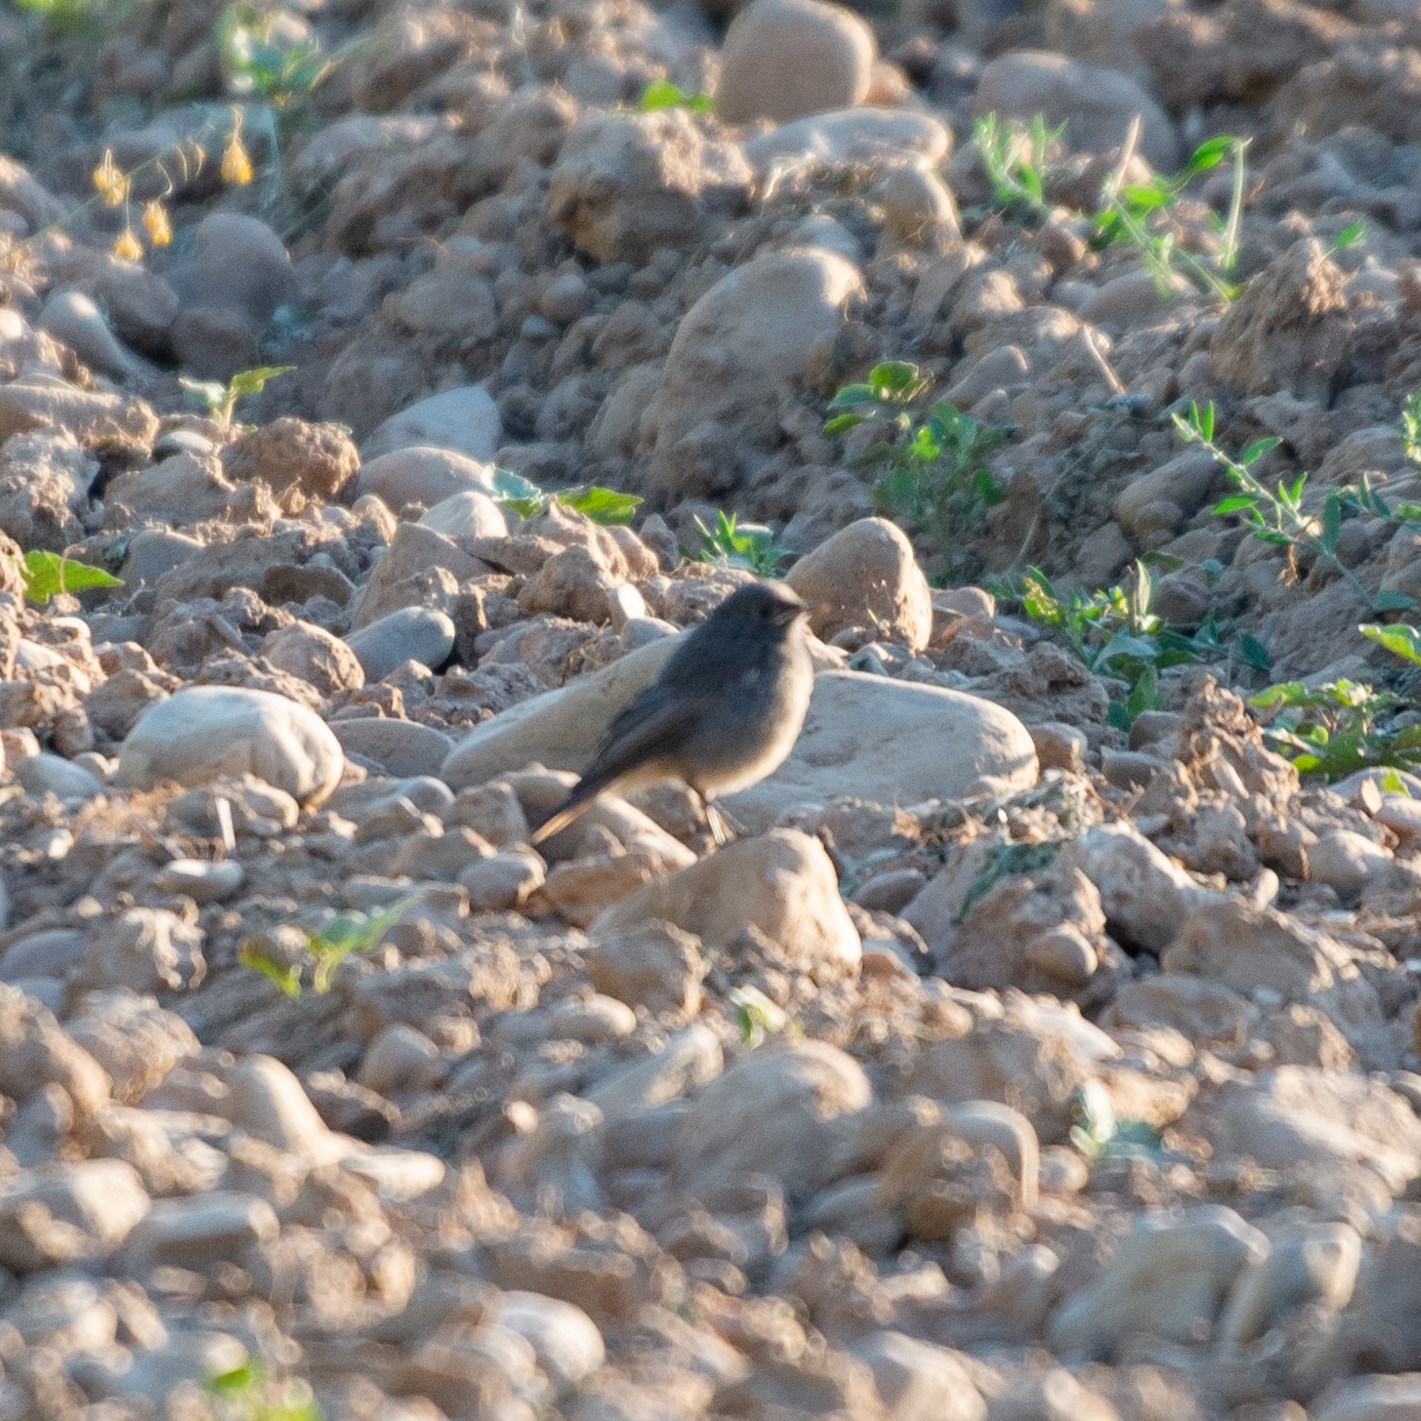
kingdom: Animalia
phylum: Chordata
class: Aves
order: Passeriformes
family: Muscicapidae
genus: Phoenicurus
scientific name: Phoenicurus ochruros
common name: Black redstart
